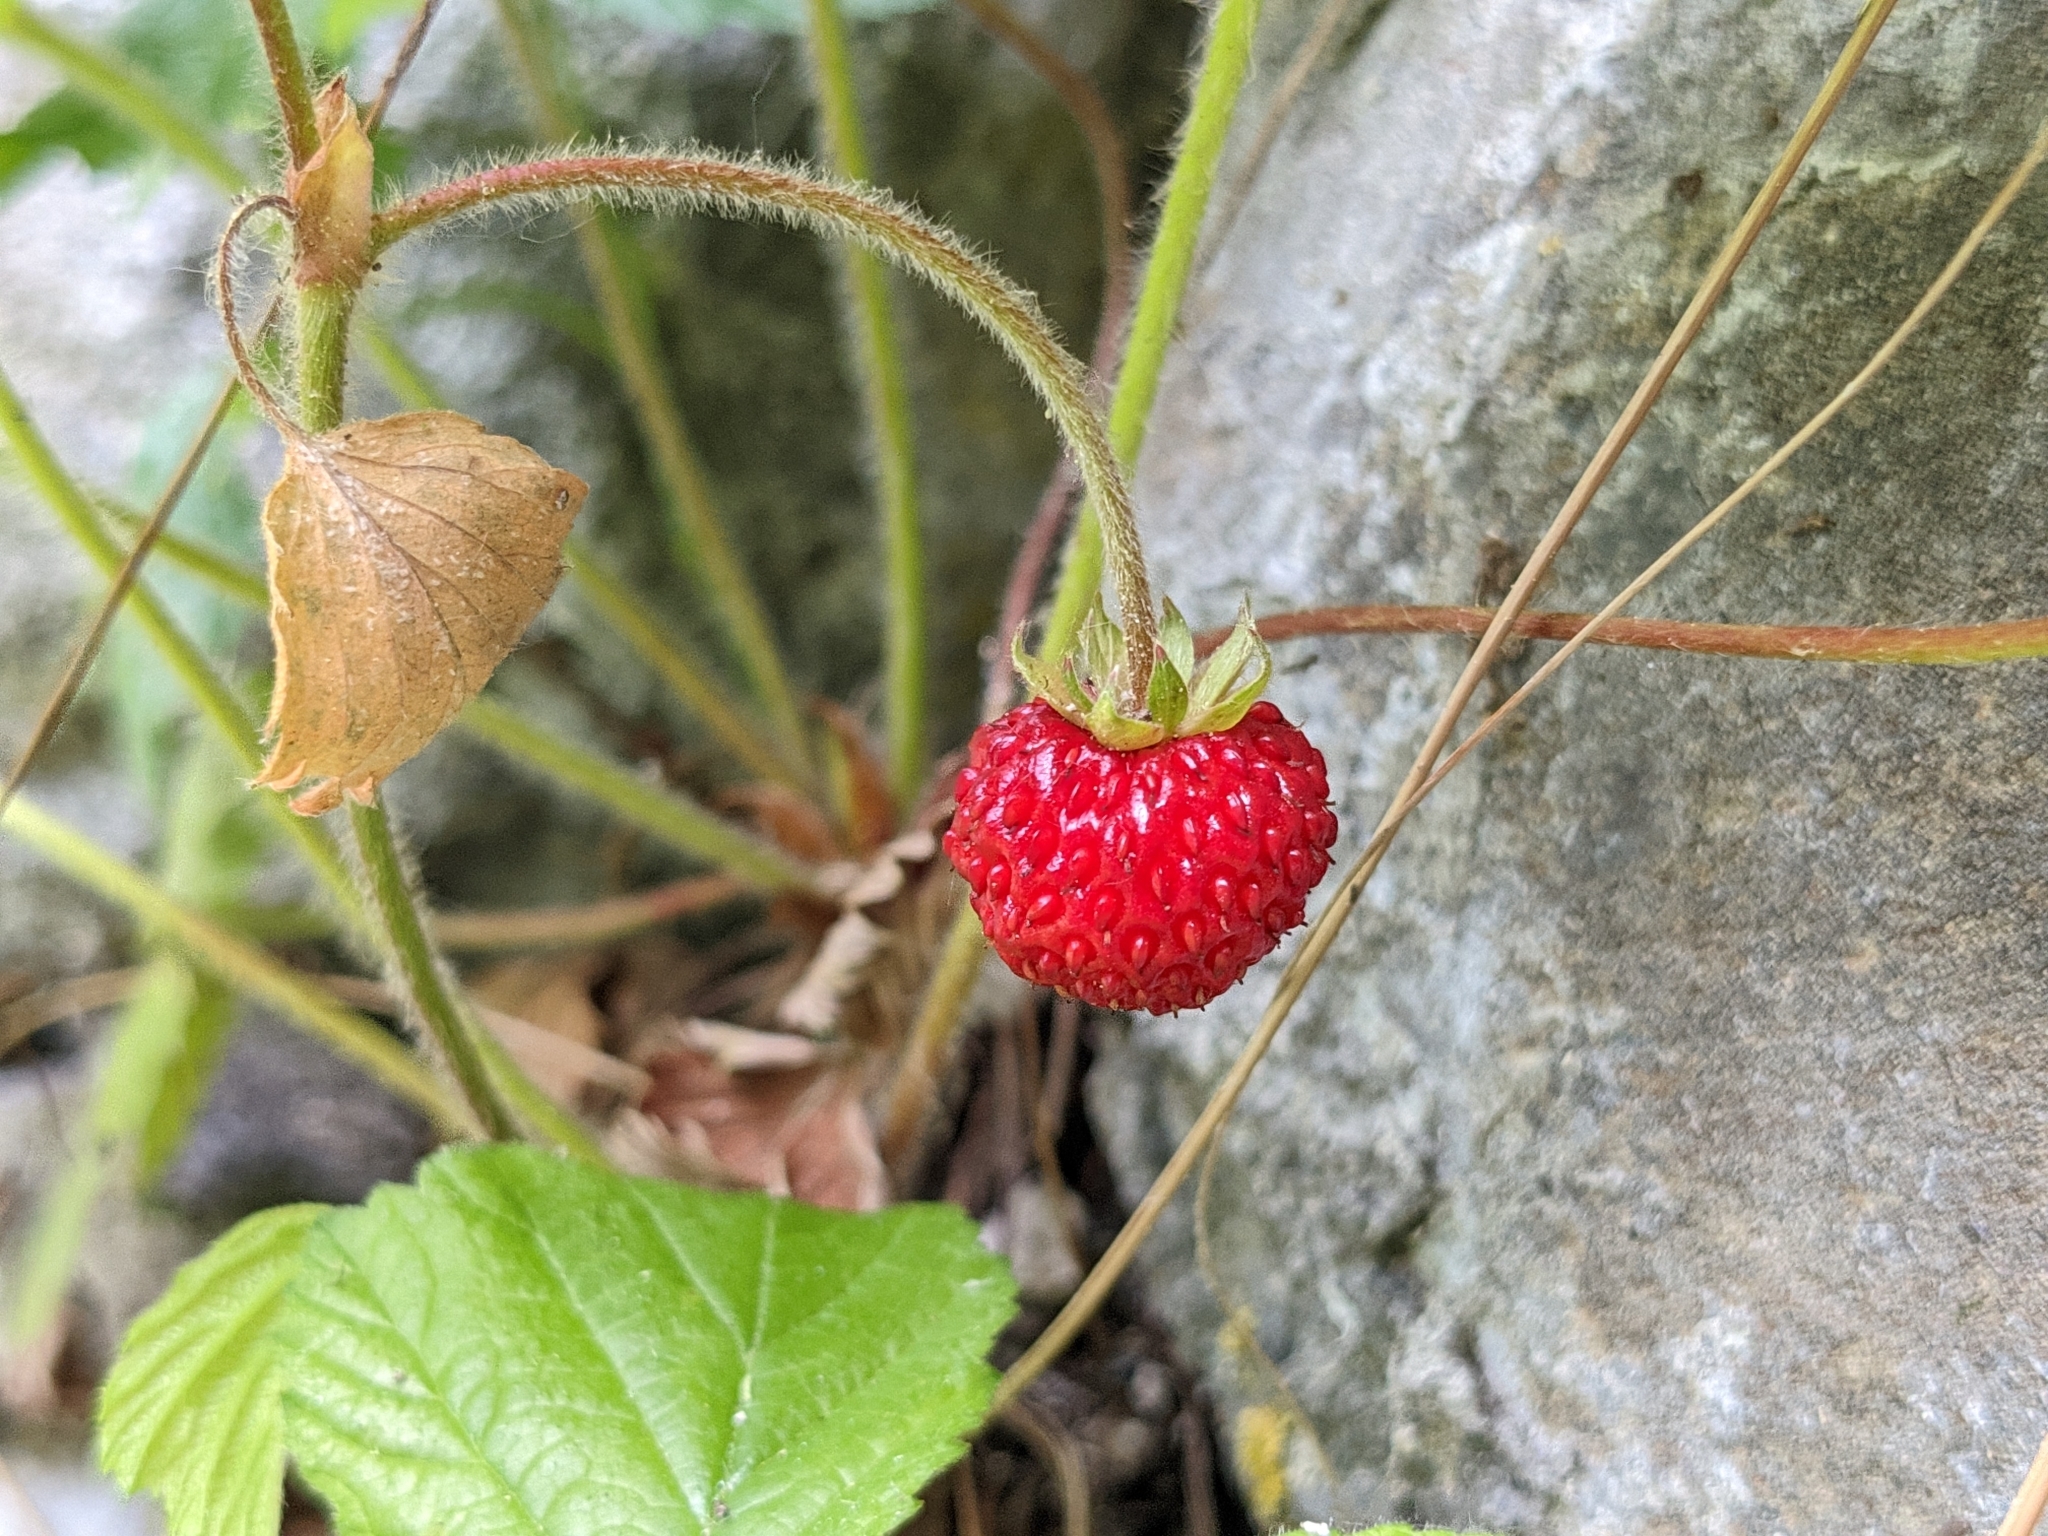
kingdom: Plantae
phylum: Tracheophyta
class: Magnoliopsida
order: Rosales
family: Rosaceae
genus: Fragaria
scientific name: Fragaria vesca
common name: Wild strawberry
